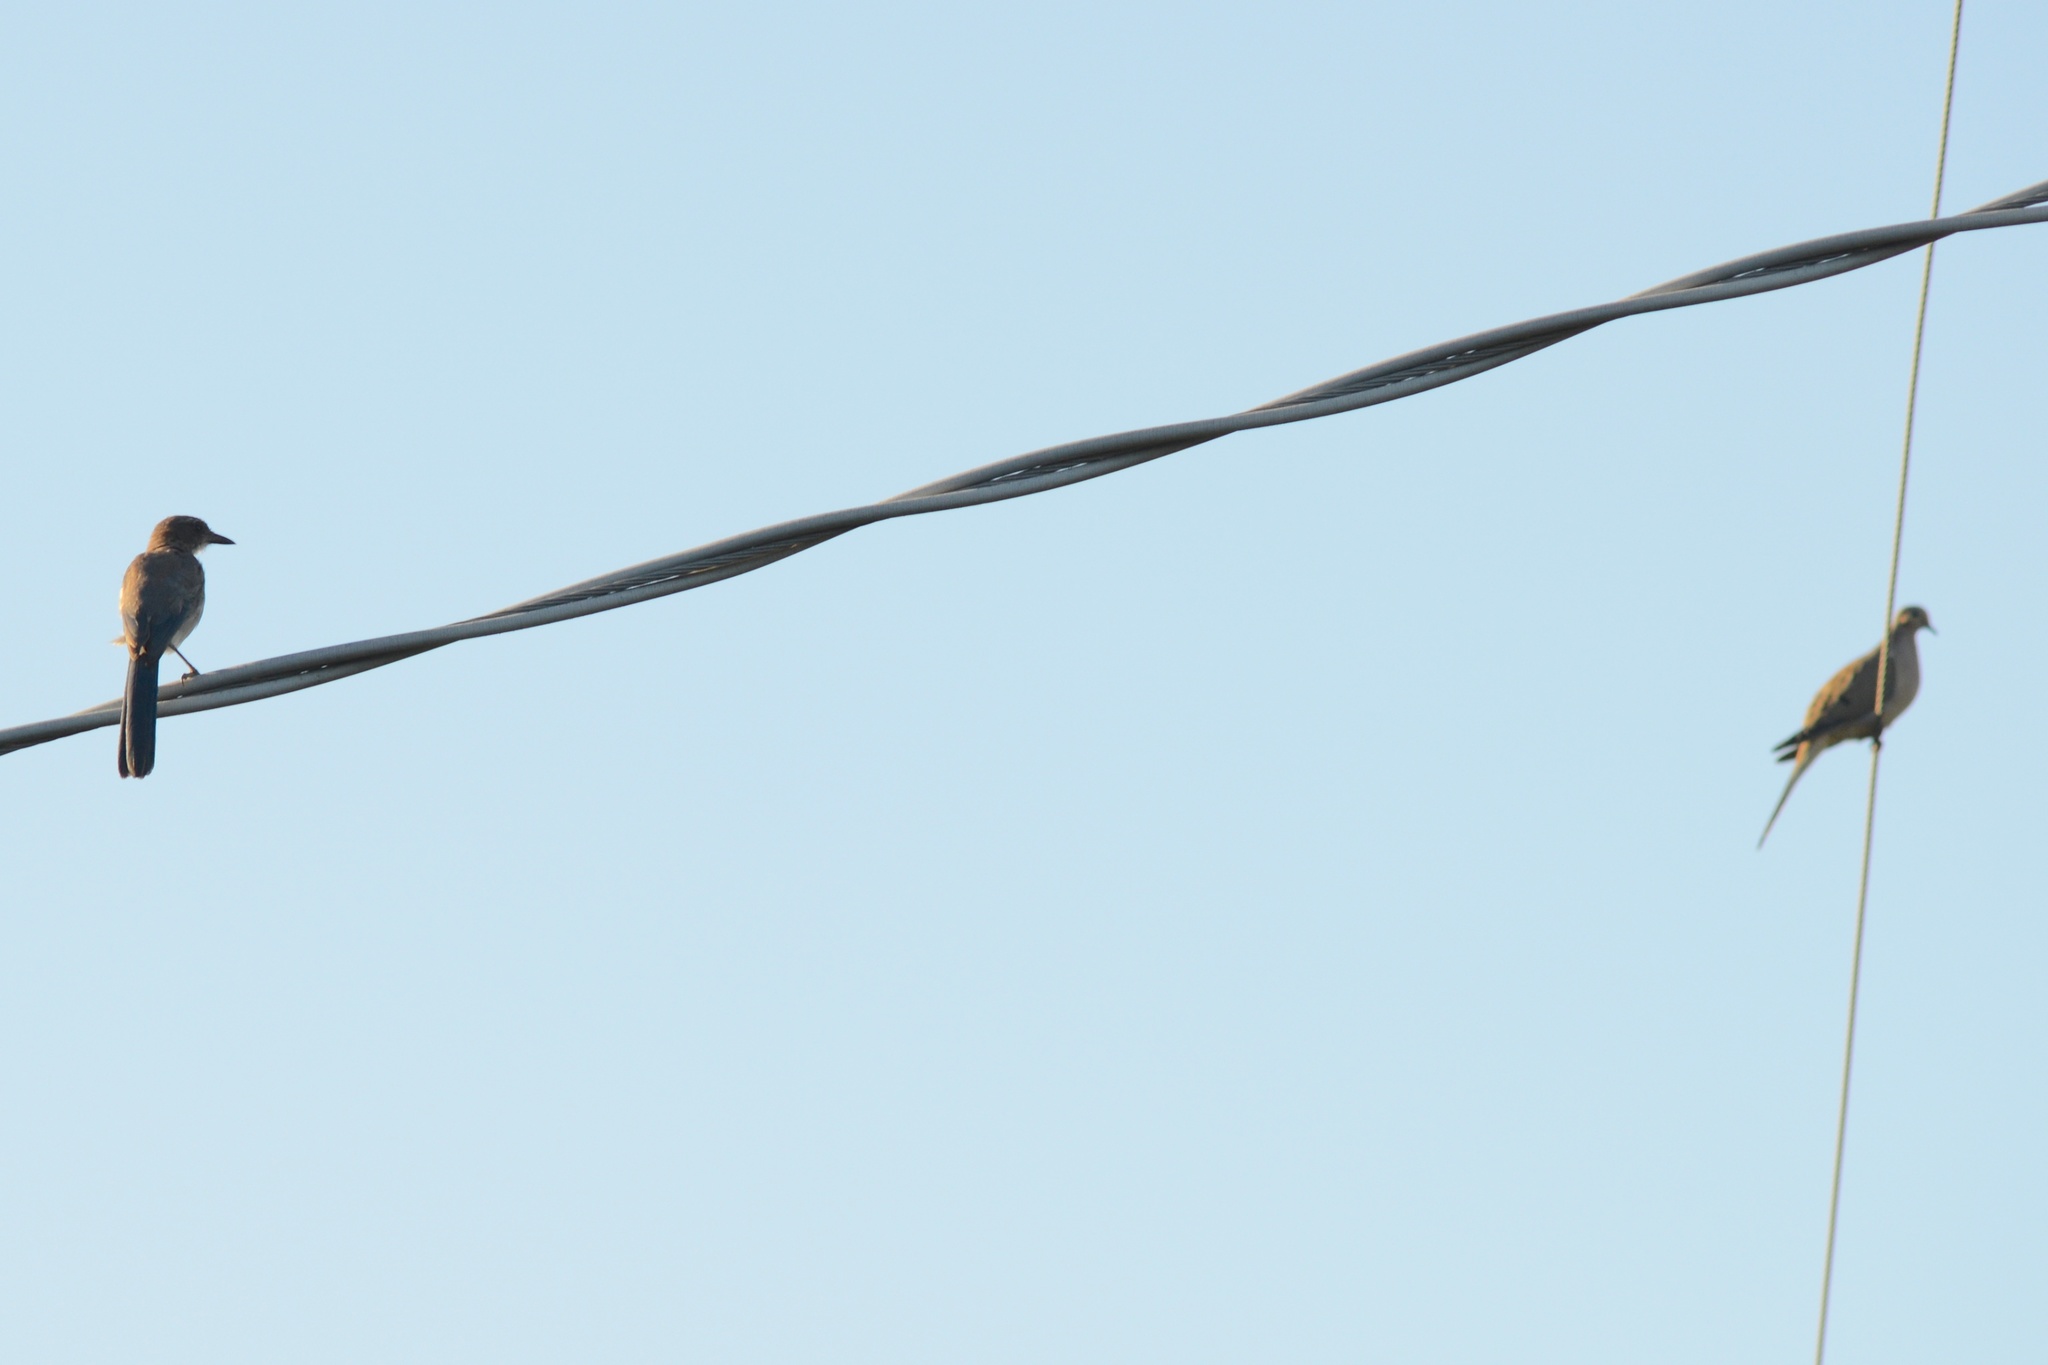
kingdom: Animalia
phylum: Chordata
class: Aves
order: Passeriformes
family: Corvidae
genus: Aphelocoma
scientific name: Aphelocoma californica
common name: California scrub-jay
